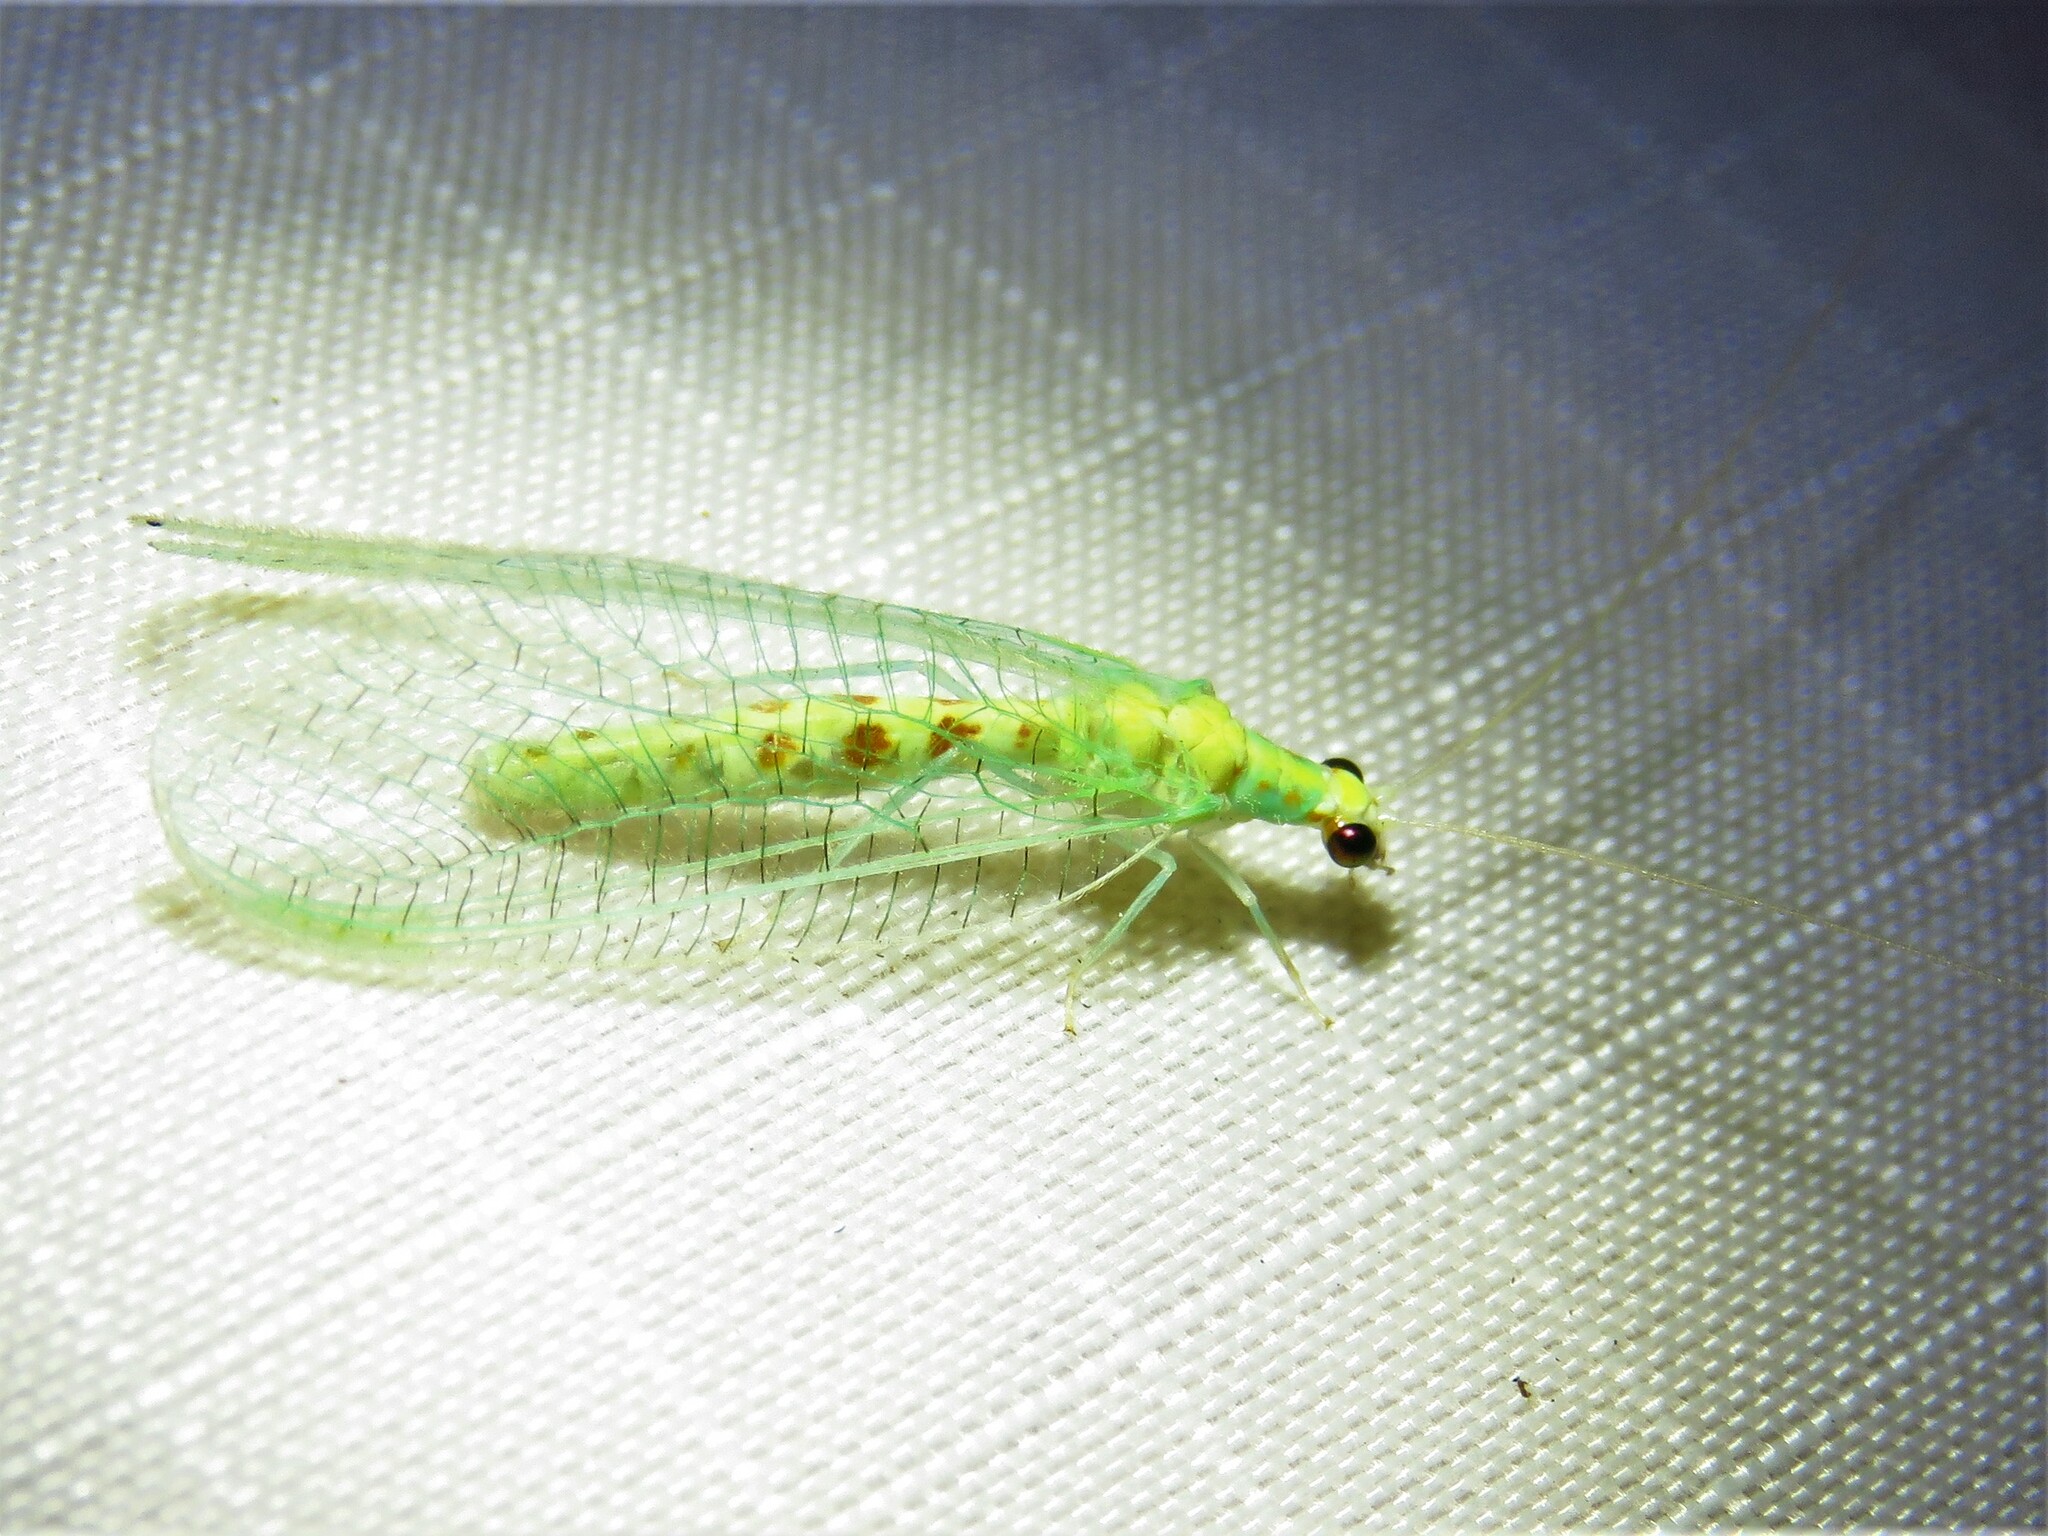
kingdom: Animalia
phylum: Arthropoda
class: Insecta
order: Neuroptera
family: Chrysopidae
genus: Chrysopa
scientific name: Chrysopa quadripunctata
